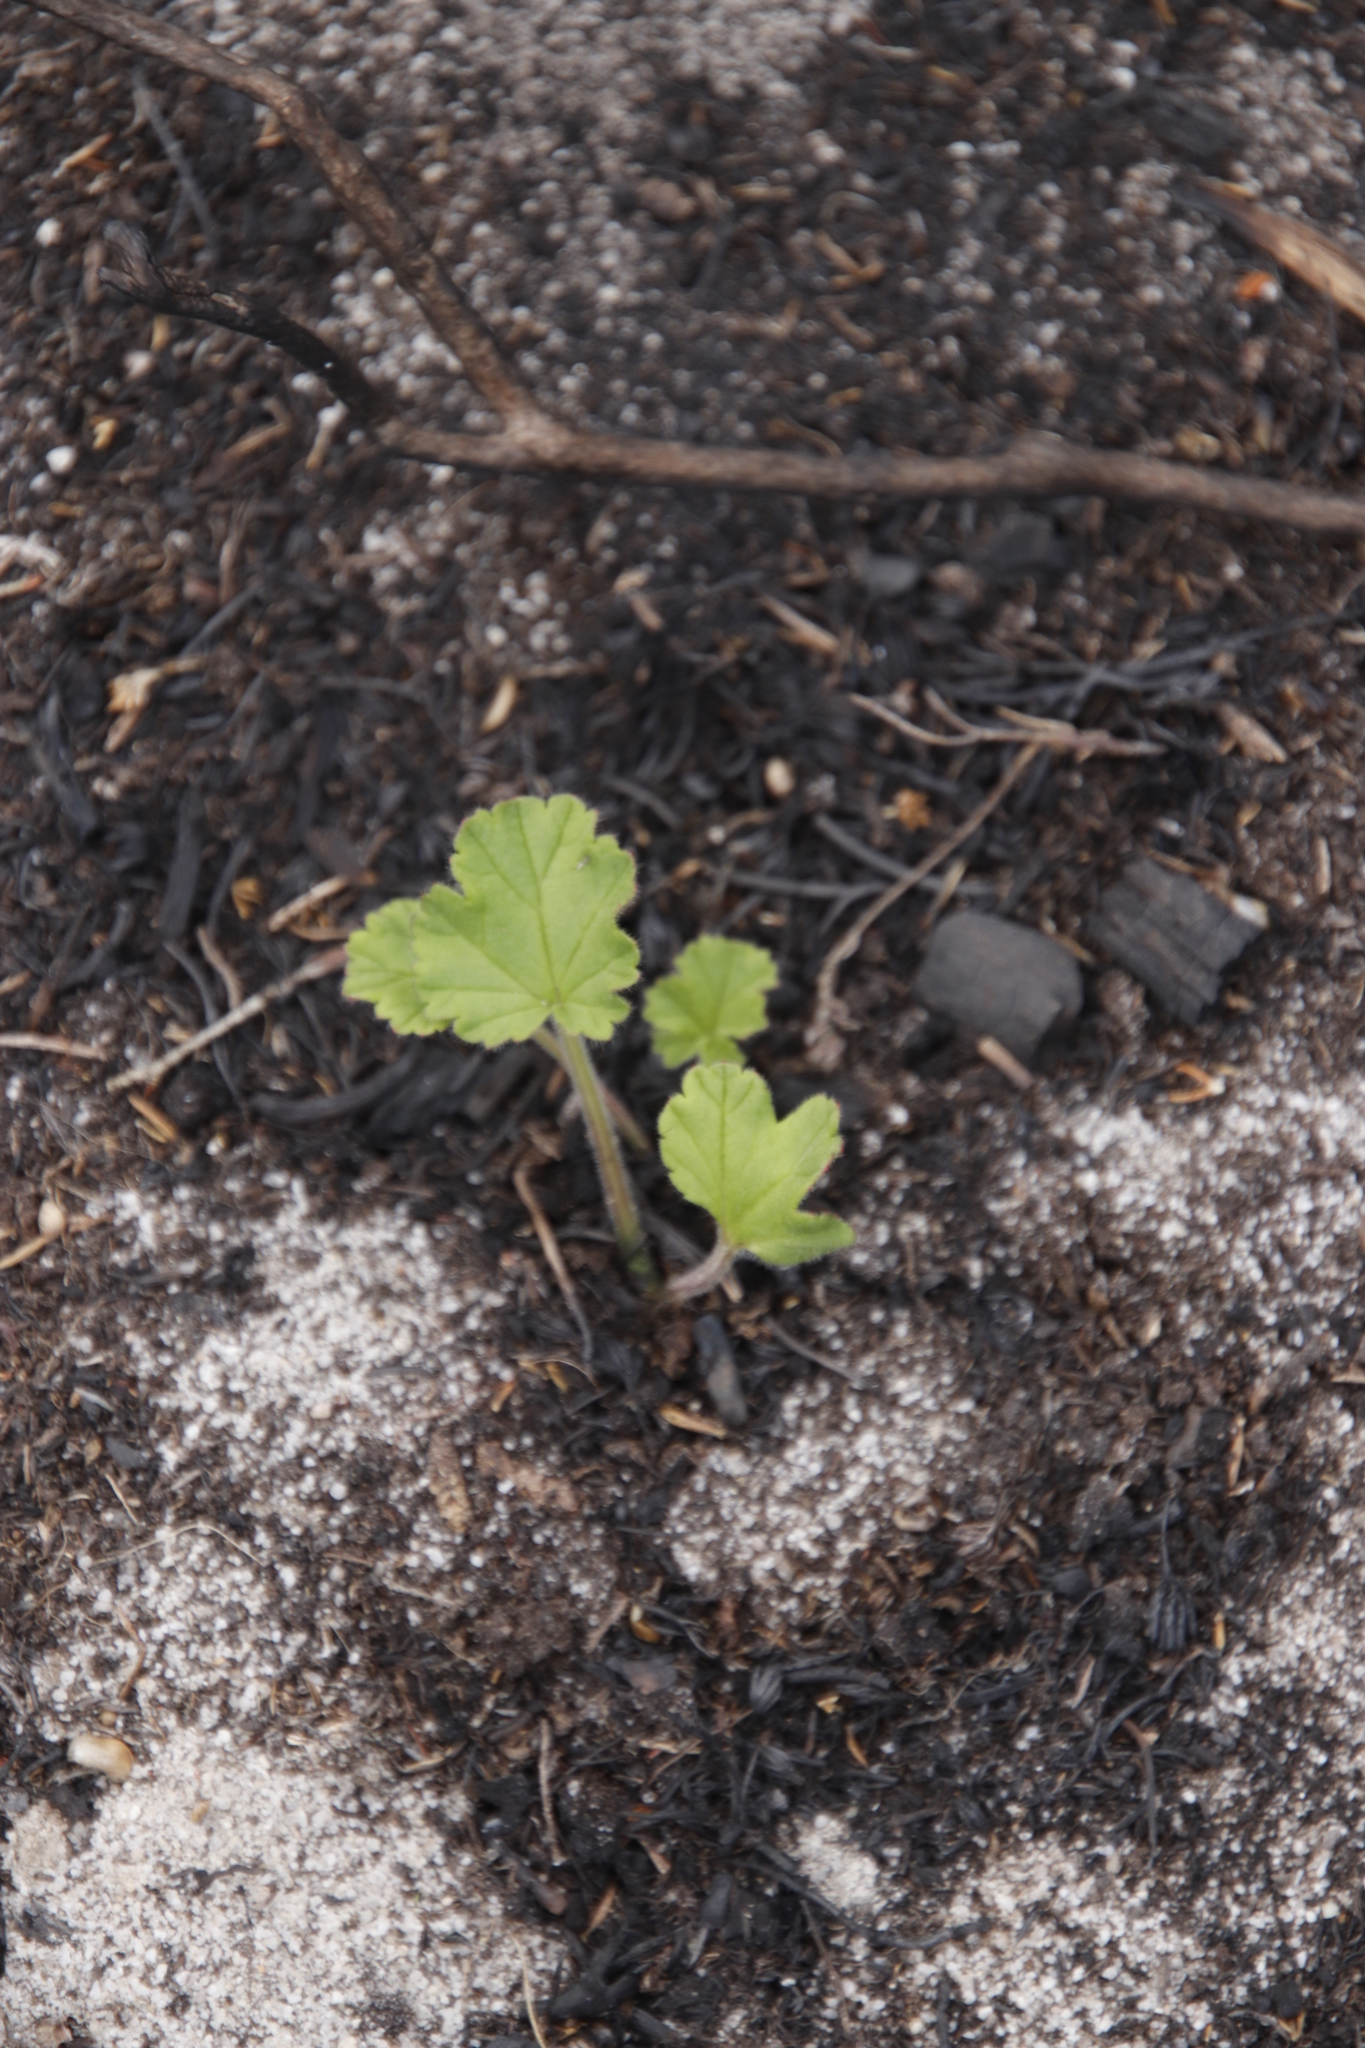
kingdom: Plantae
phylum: Tracheophyta
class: Magnoliopsida
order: Geraniales
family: Geraniaceae
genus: Pelargonium
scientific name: Pelargonium althaeoides
